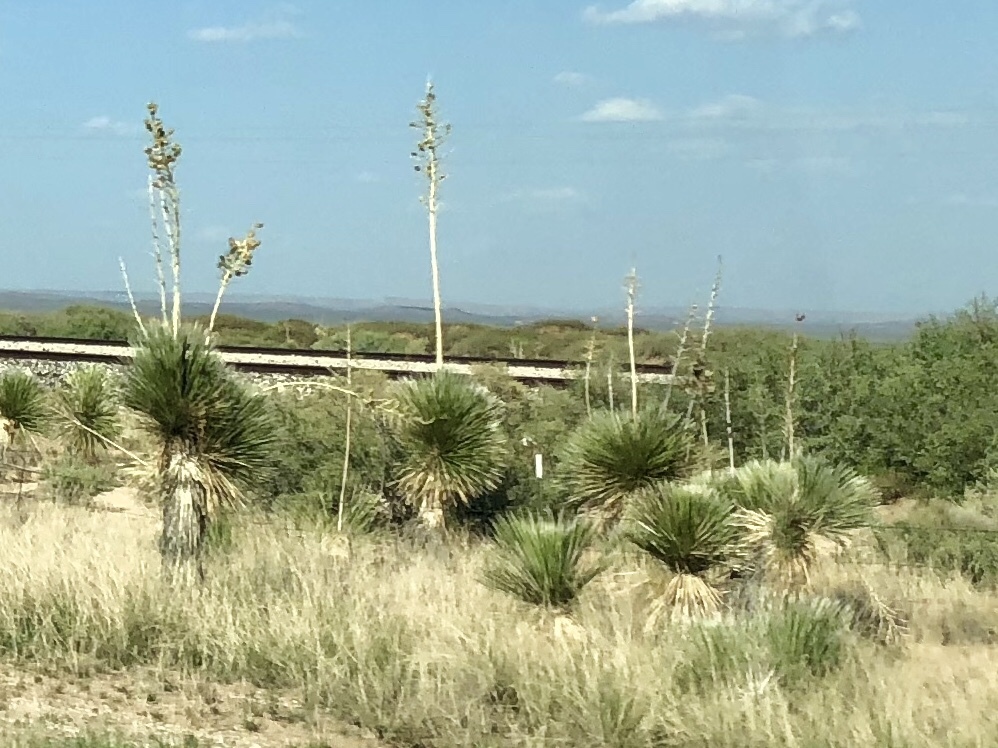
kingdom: Plantae
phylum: Tracheophyta
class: Liliopsida
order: Asparagales
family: Asparagaceae
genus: Yucca
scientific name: Yucca elata
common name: Palmella
